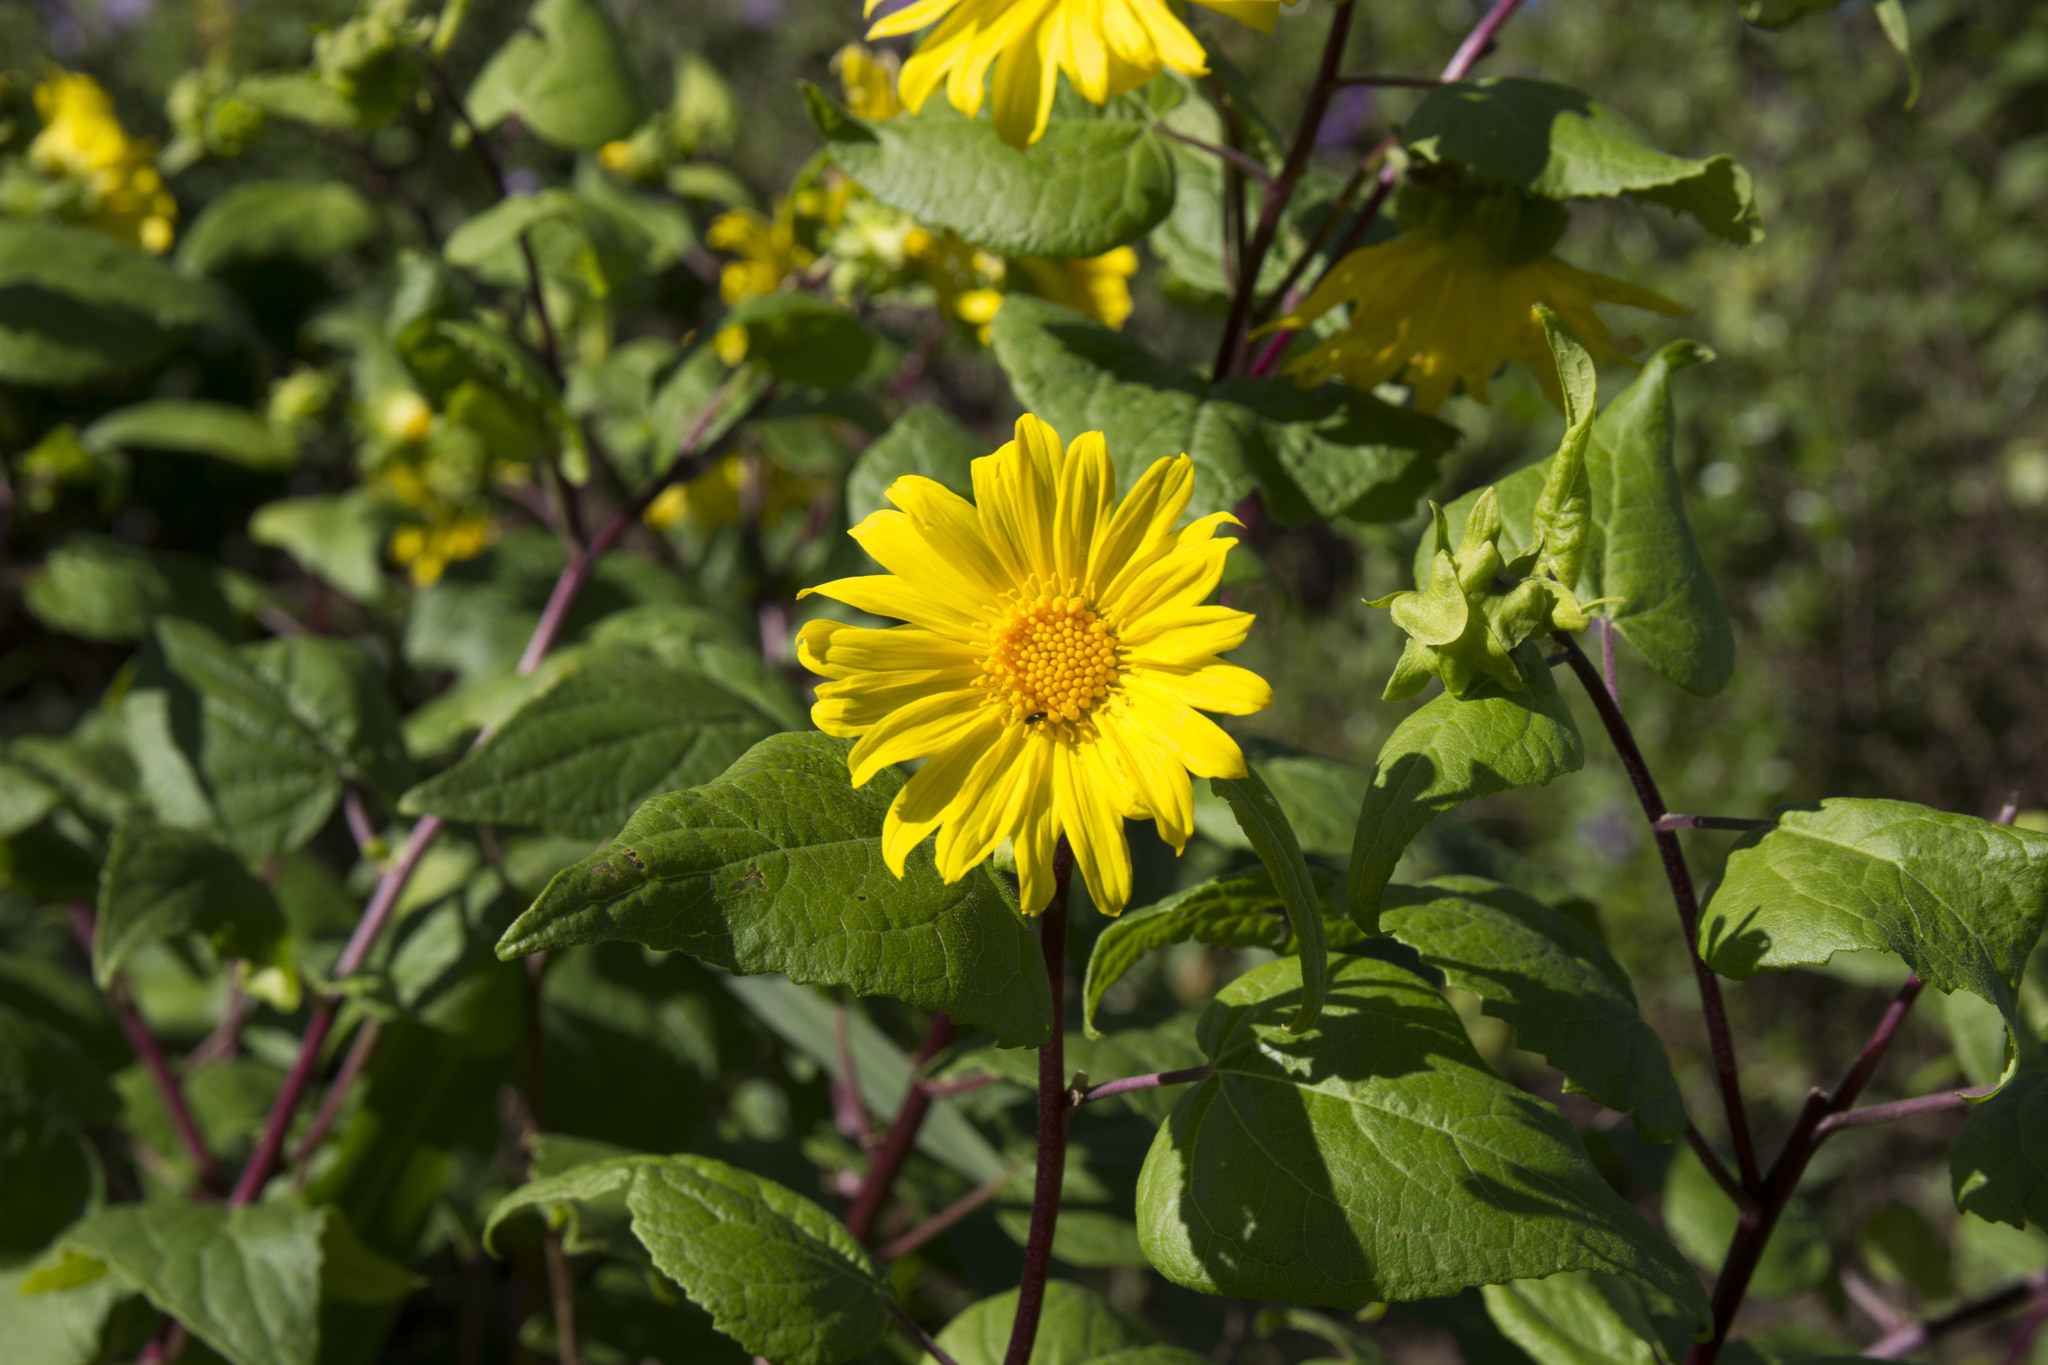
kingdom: Plantae
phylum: Tracheophyta
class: Magnoliopsida
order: Asterales
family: Asteraceae
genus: Venegasia
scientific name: Venegasia carpesioides
